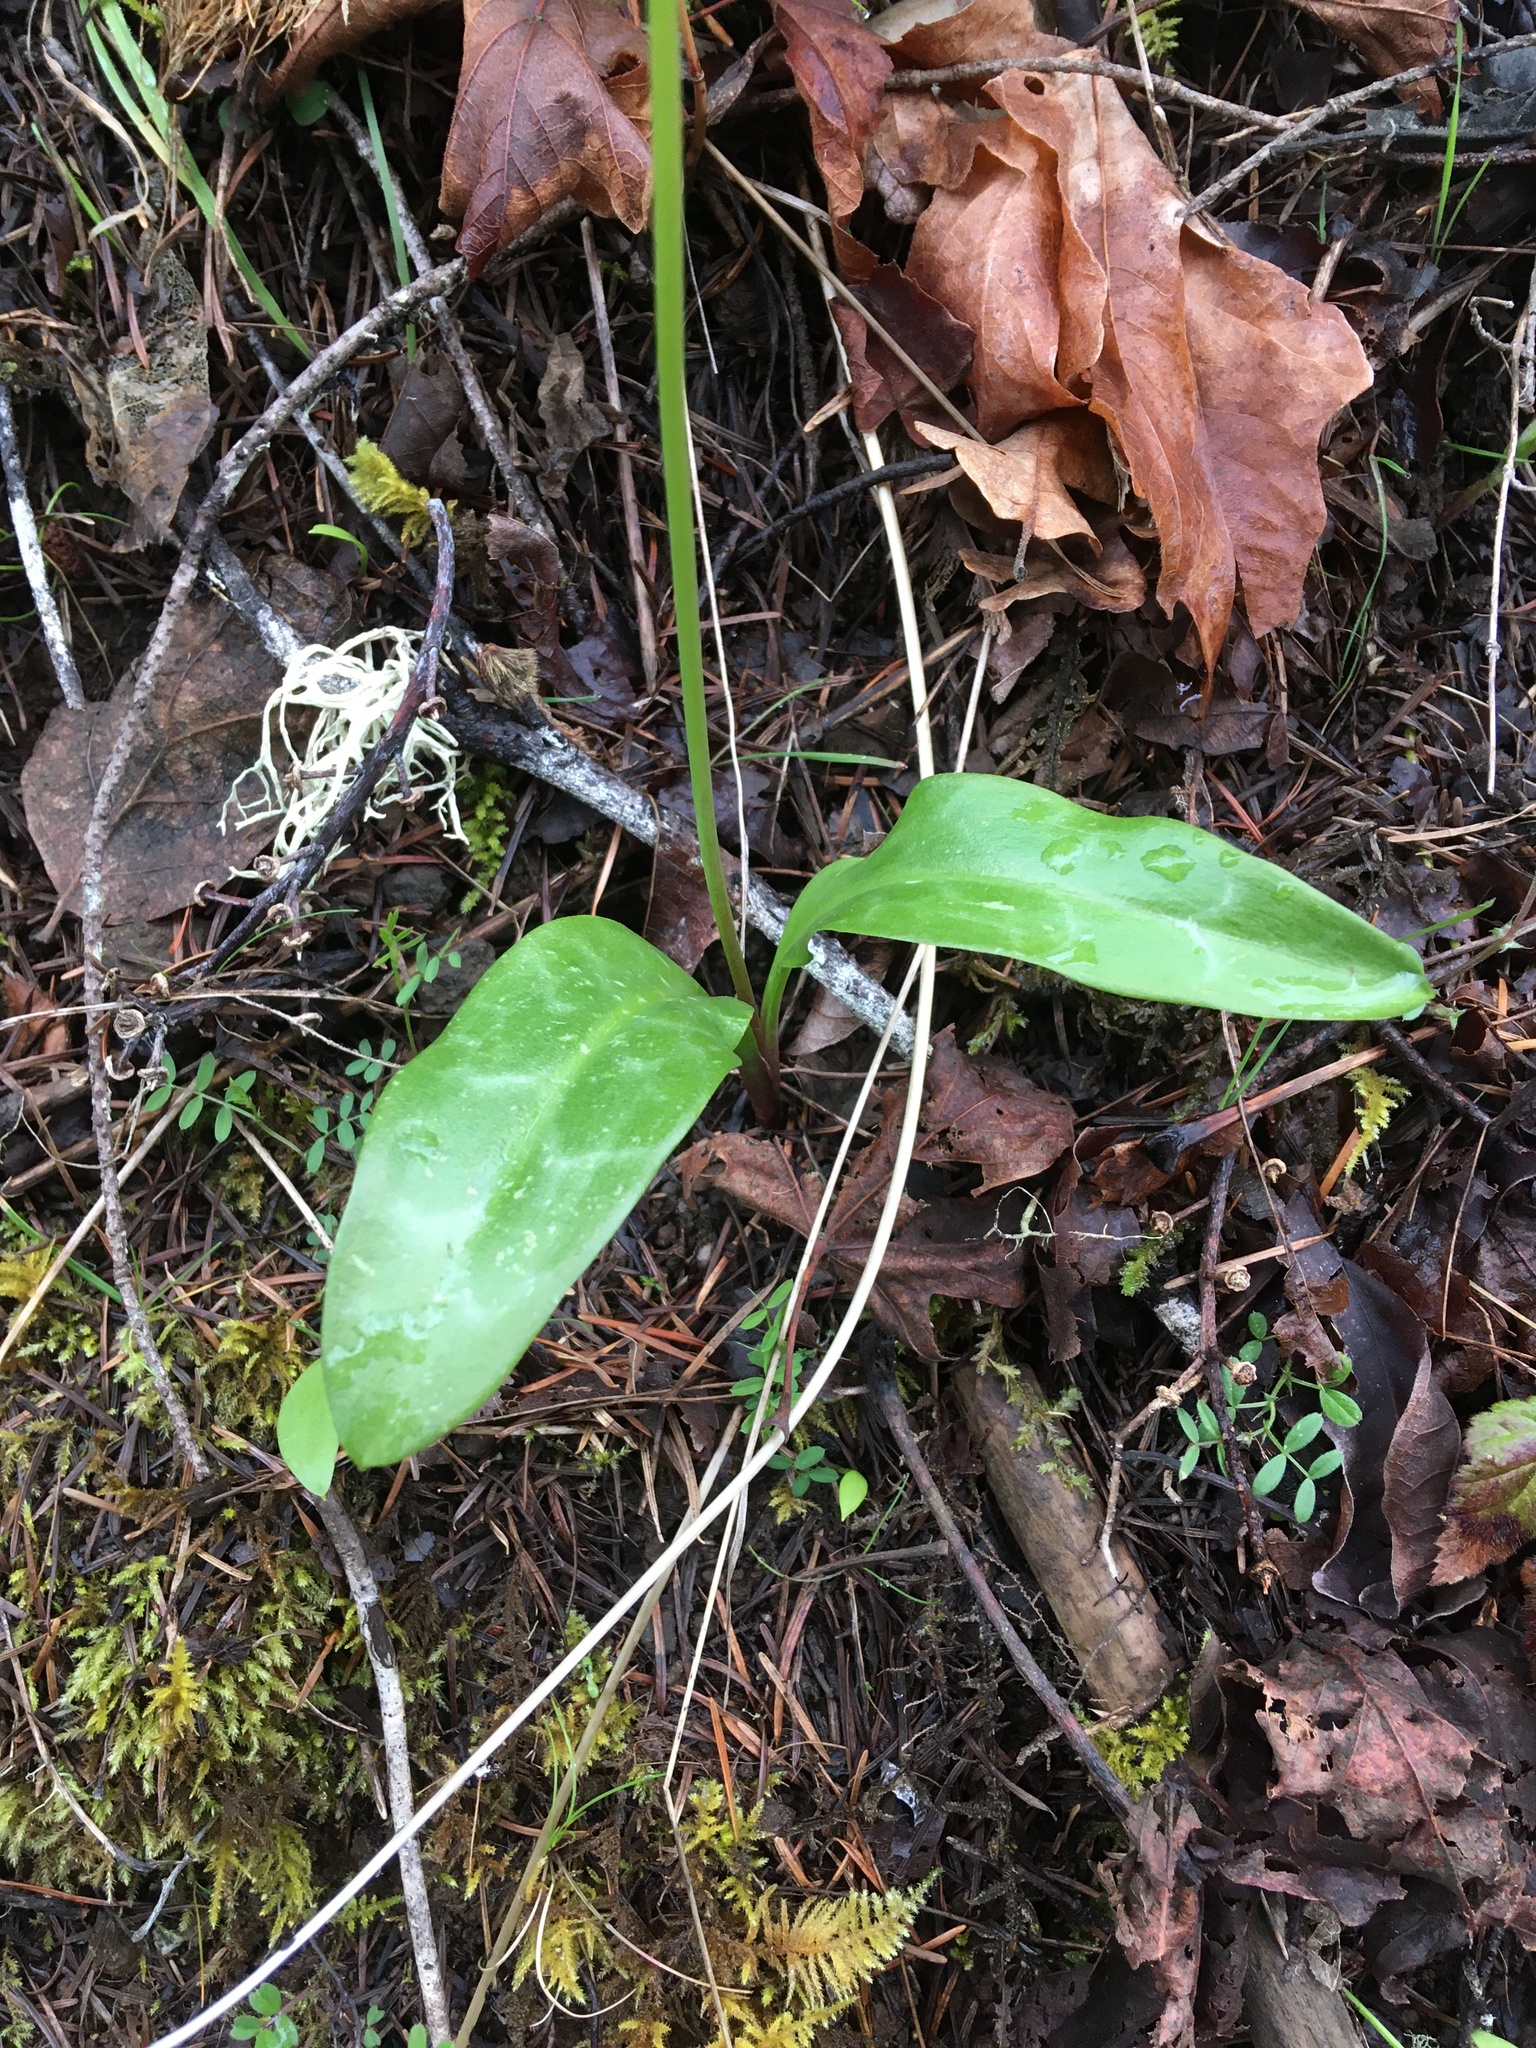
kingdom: Plantae
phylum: Tracheophyta
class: Liliopsida
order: Liliales
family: Liliaceae
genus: Erythronium
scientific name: Erythronium oregonum
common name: Giant adder's-tongue
